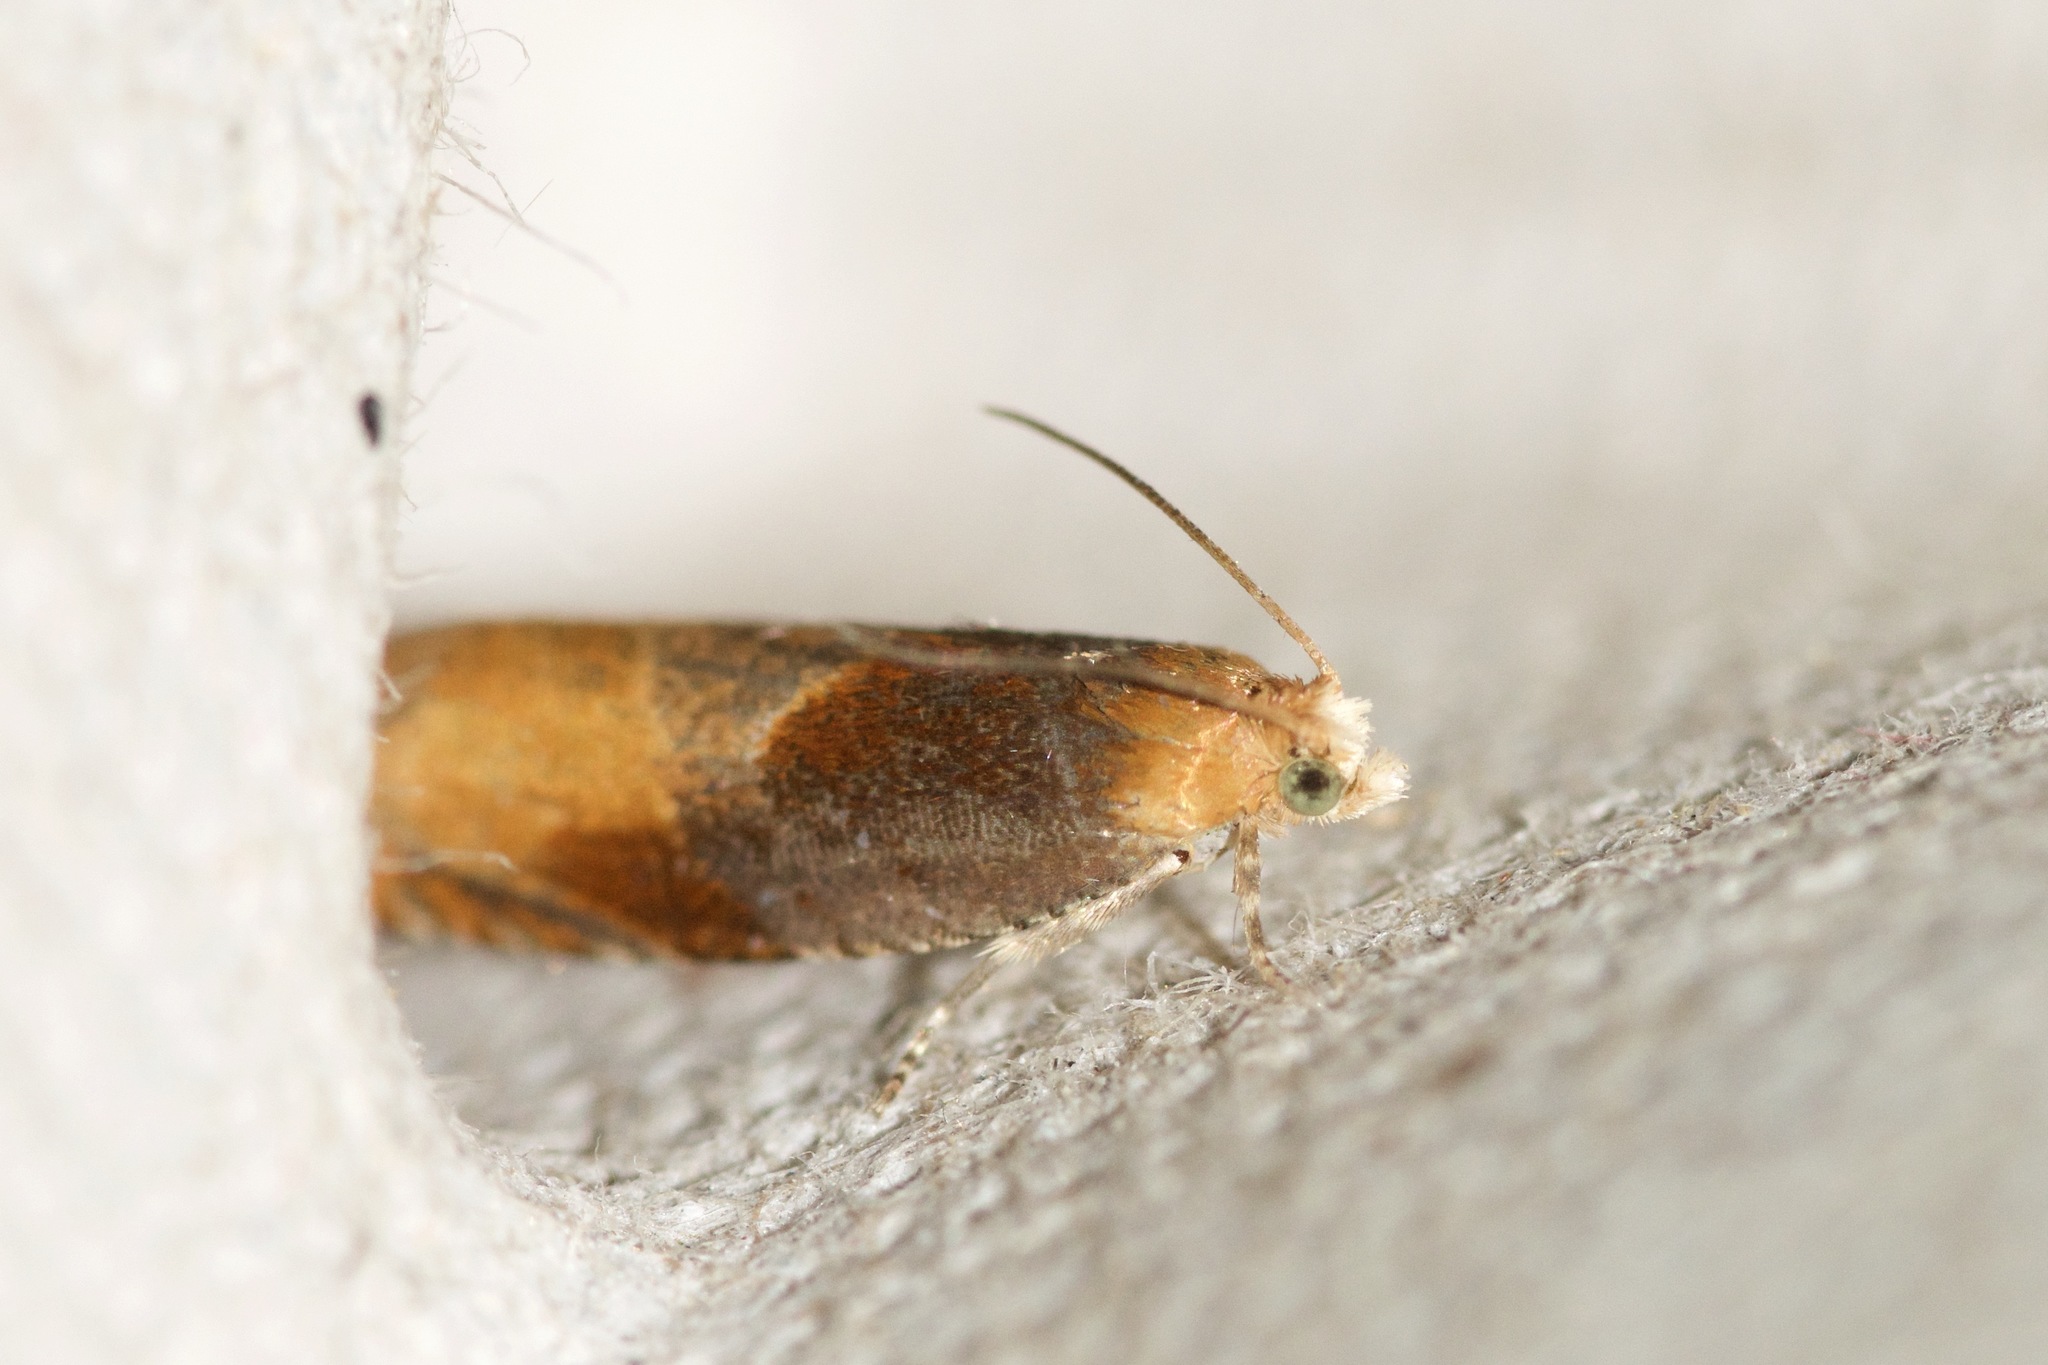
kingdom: Animalia
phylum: Arthropoda
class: Insecta
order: Lepidoptera
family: Tortricidae
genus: Ancylis
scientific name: Ancylis divisana
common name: Two-toned ancylis moth
